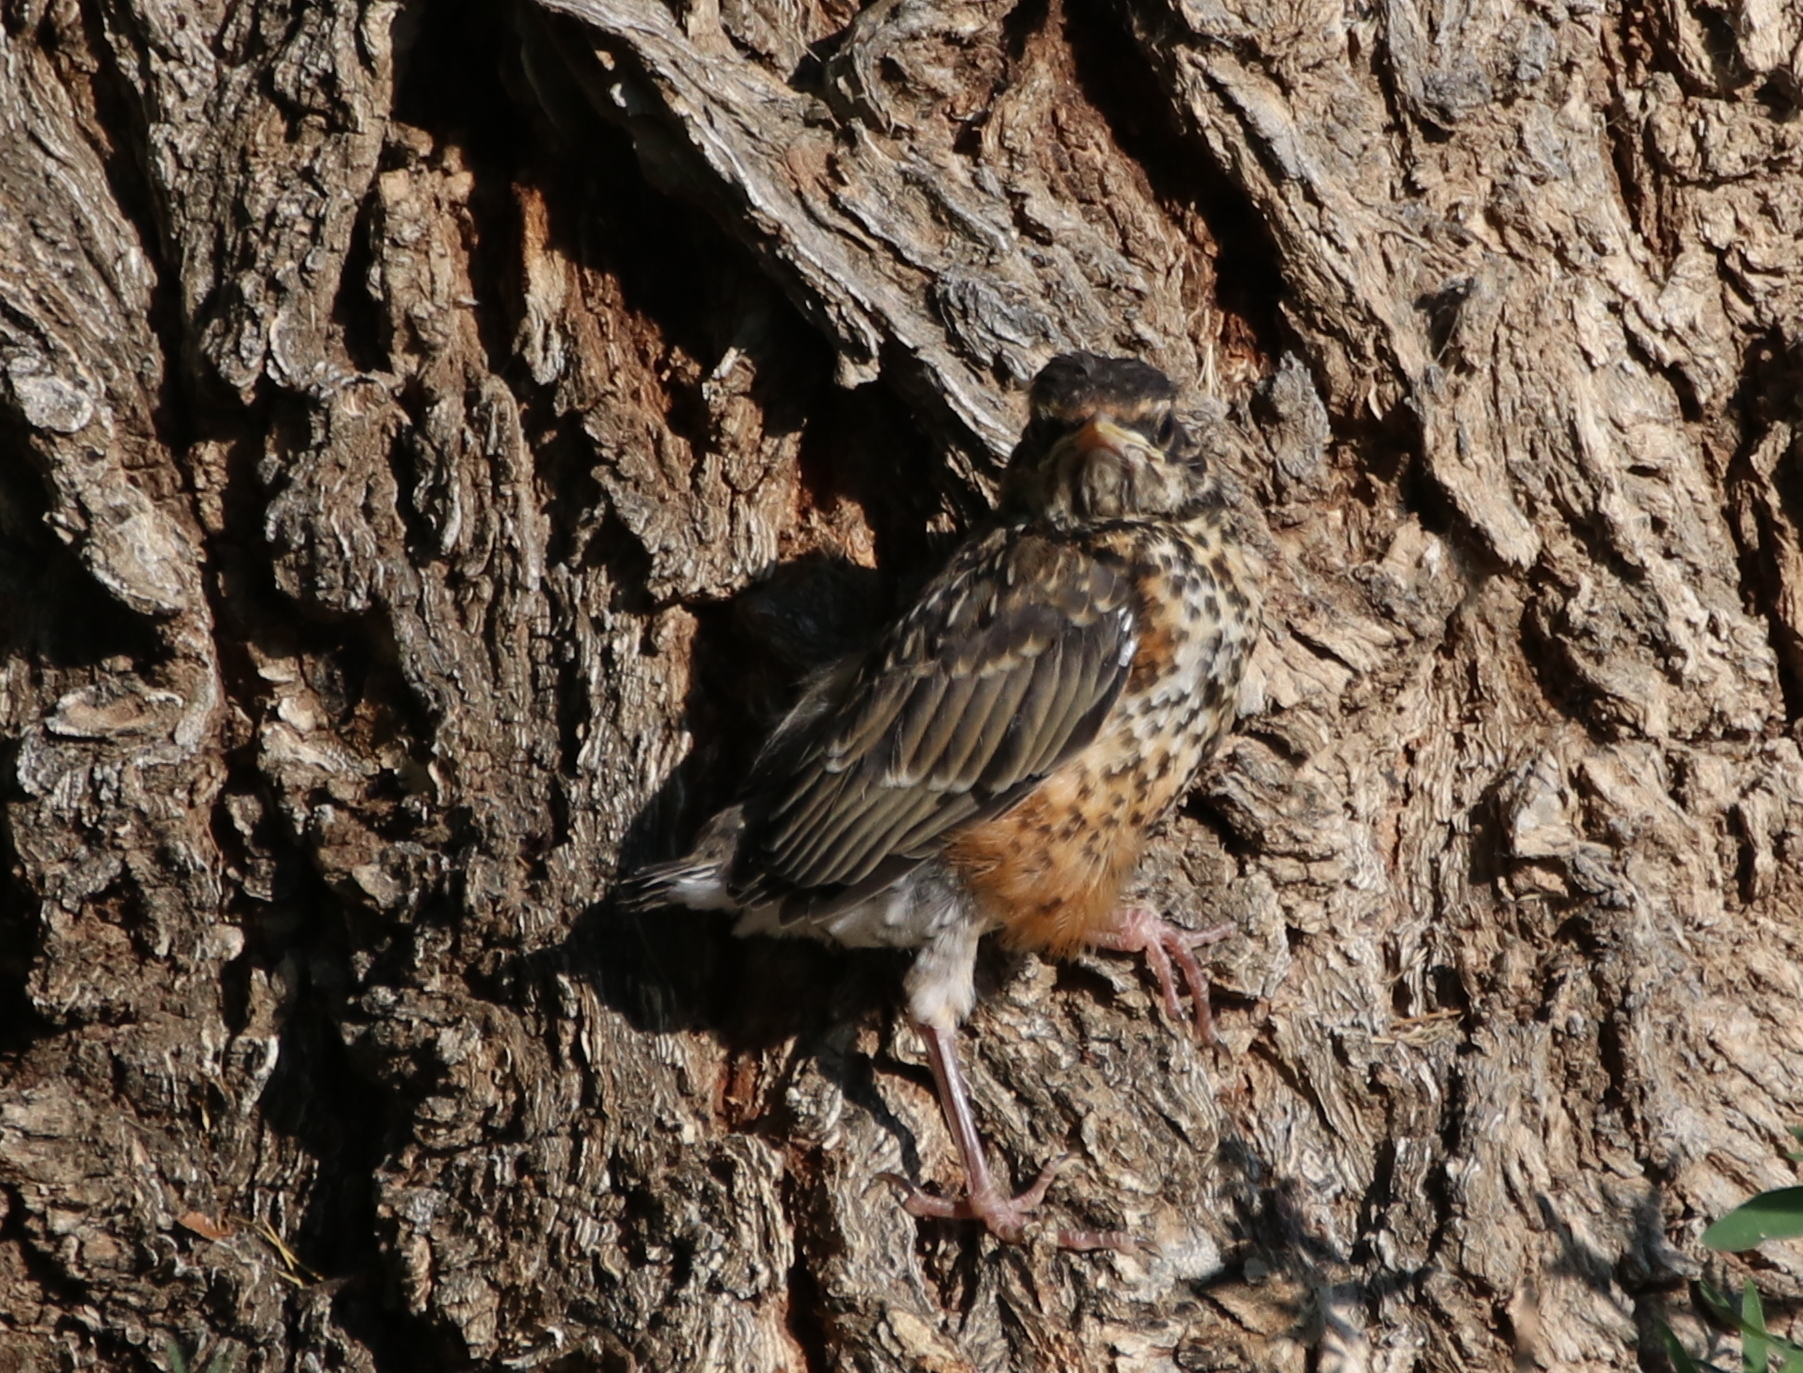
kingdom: Animalia
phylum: Chordata
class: Aves
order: Passeriformes
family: Turdidae
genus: Turdus
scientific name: Turdus migratorius
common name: American robin
